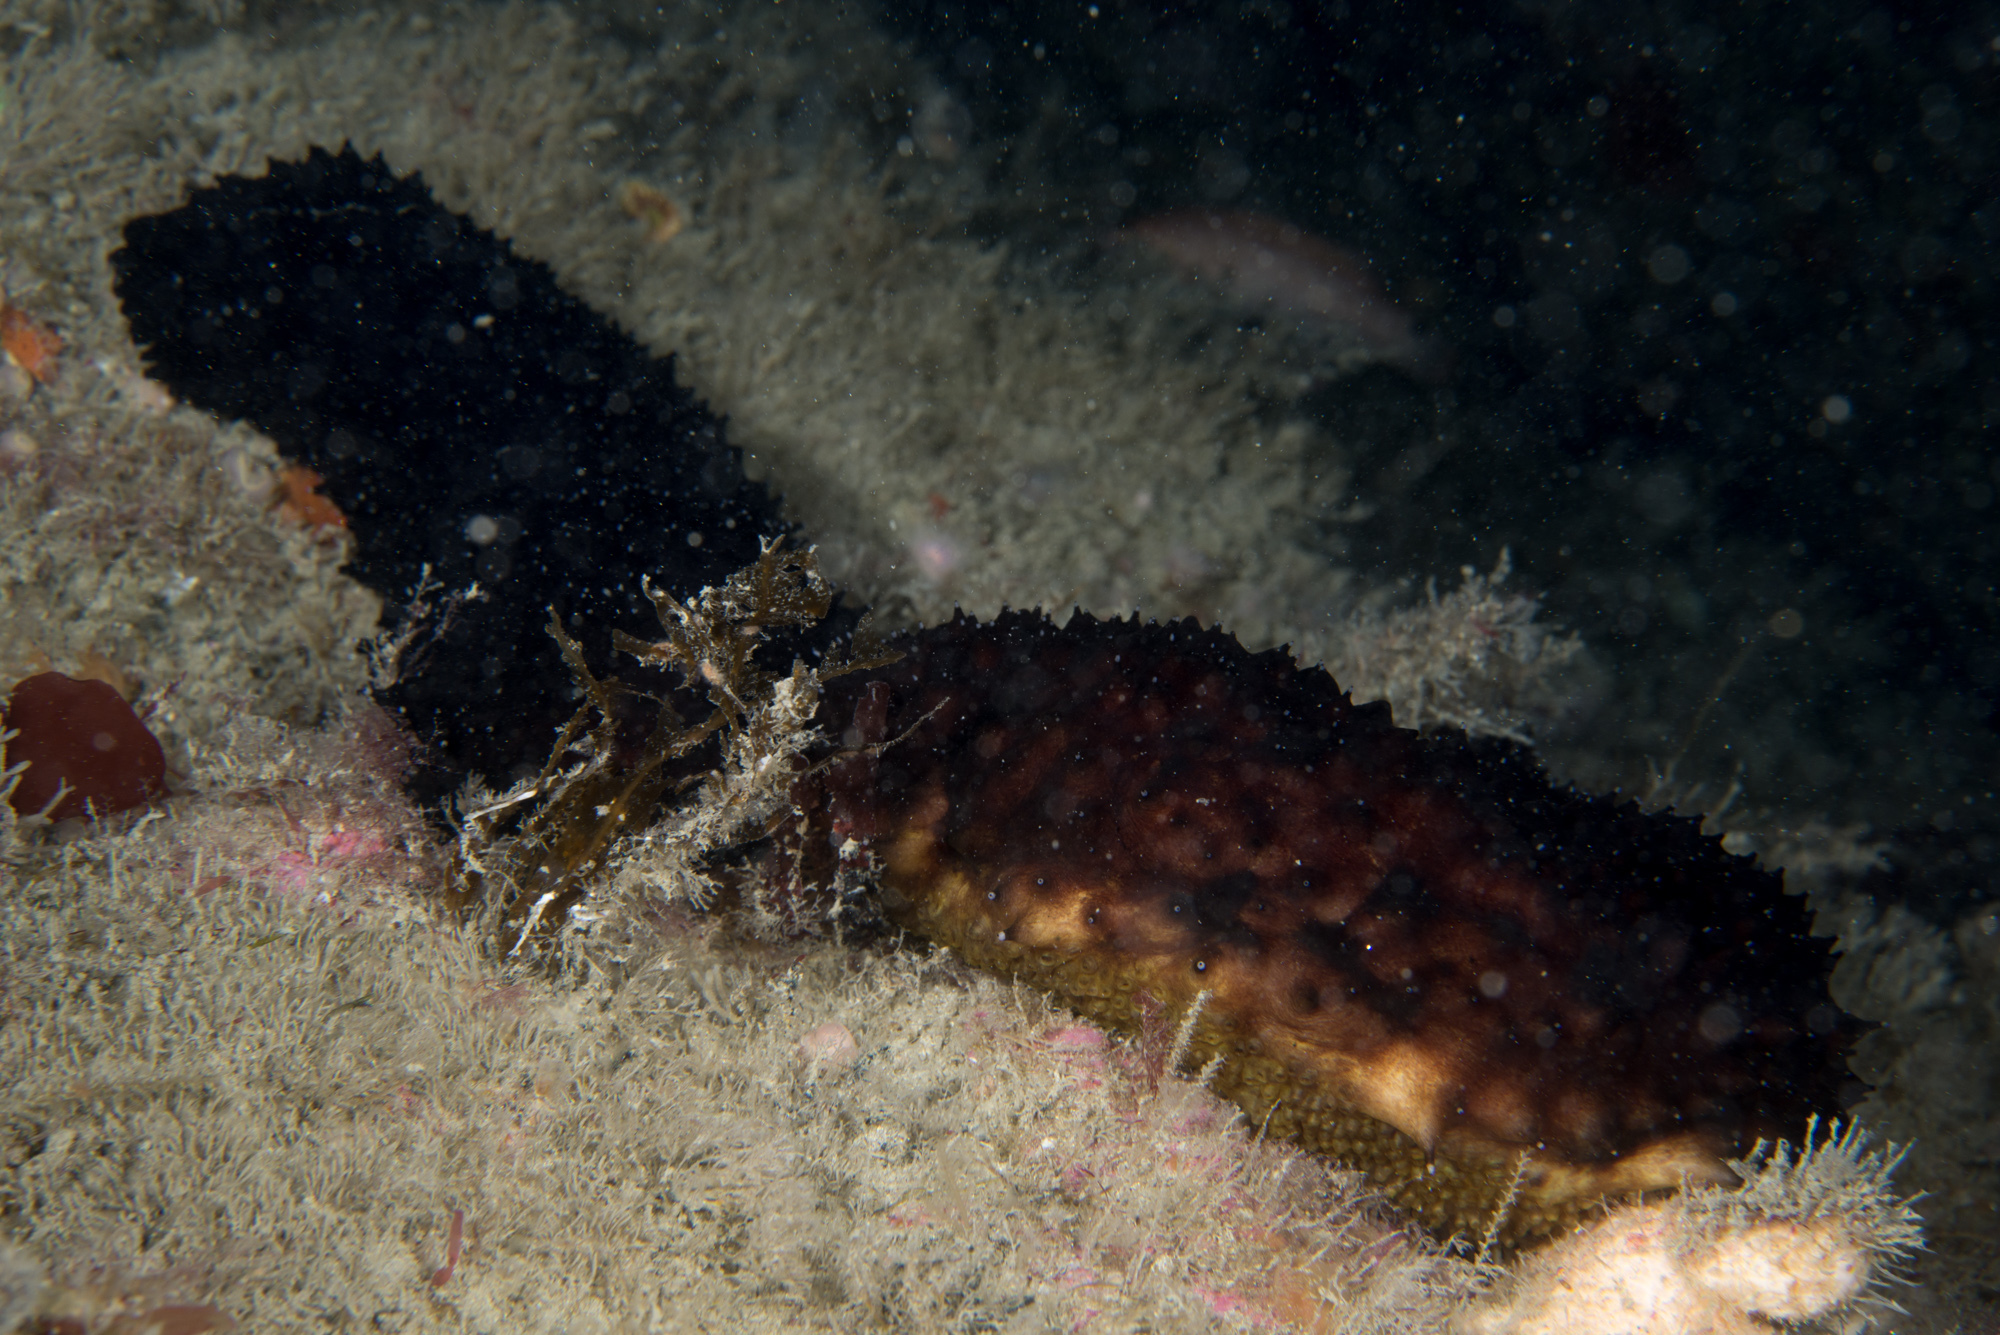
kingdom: Animalia
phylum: Echinodermata
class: Holothuroidea
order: Holothuriida
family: Holothuriidae
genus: Holothuria
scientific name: Holothuria forskali
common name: Black sea cucumber
